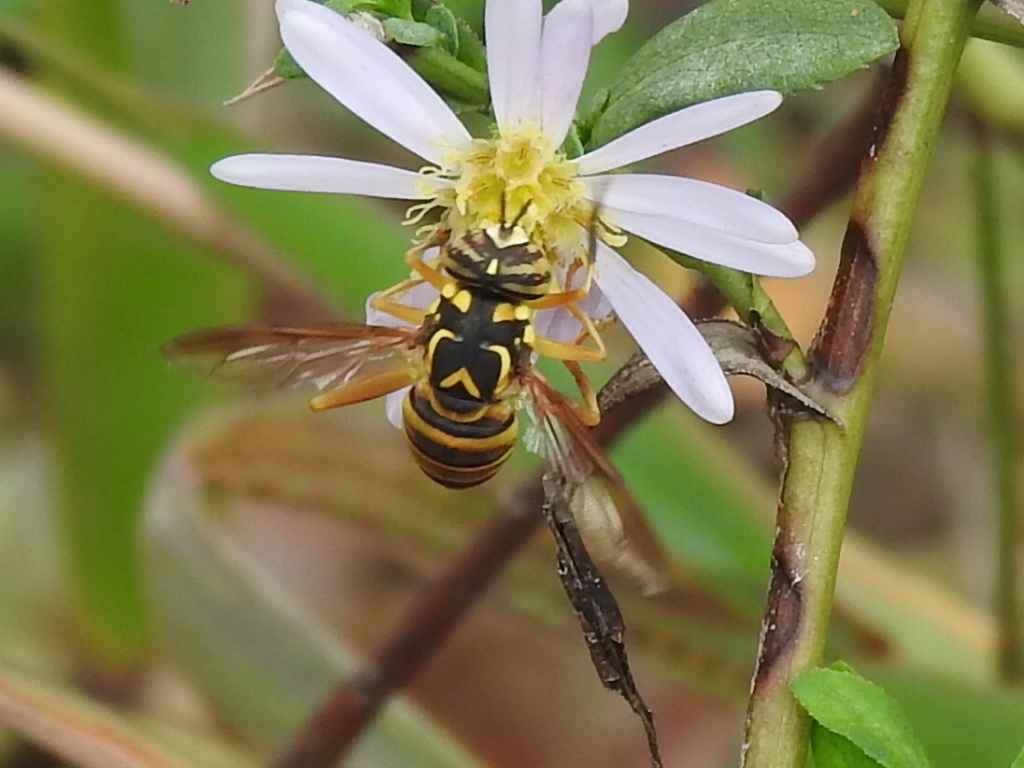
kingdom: Animalia
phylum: Arthropoda
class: Insecta
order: Diptera
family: Syrphidae
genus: Spilomyia
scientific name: Spilomyia longicornis
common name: Eastern hornet fly
